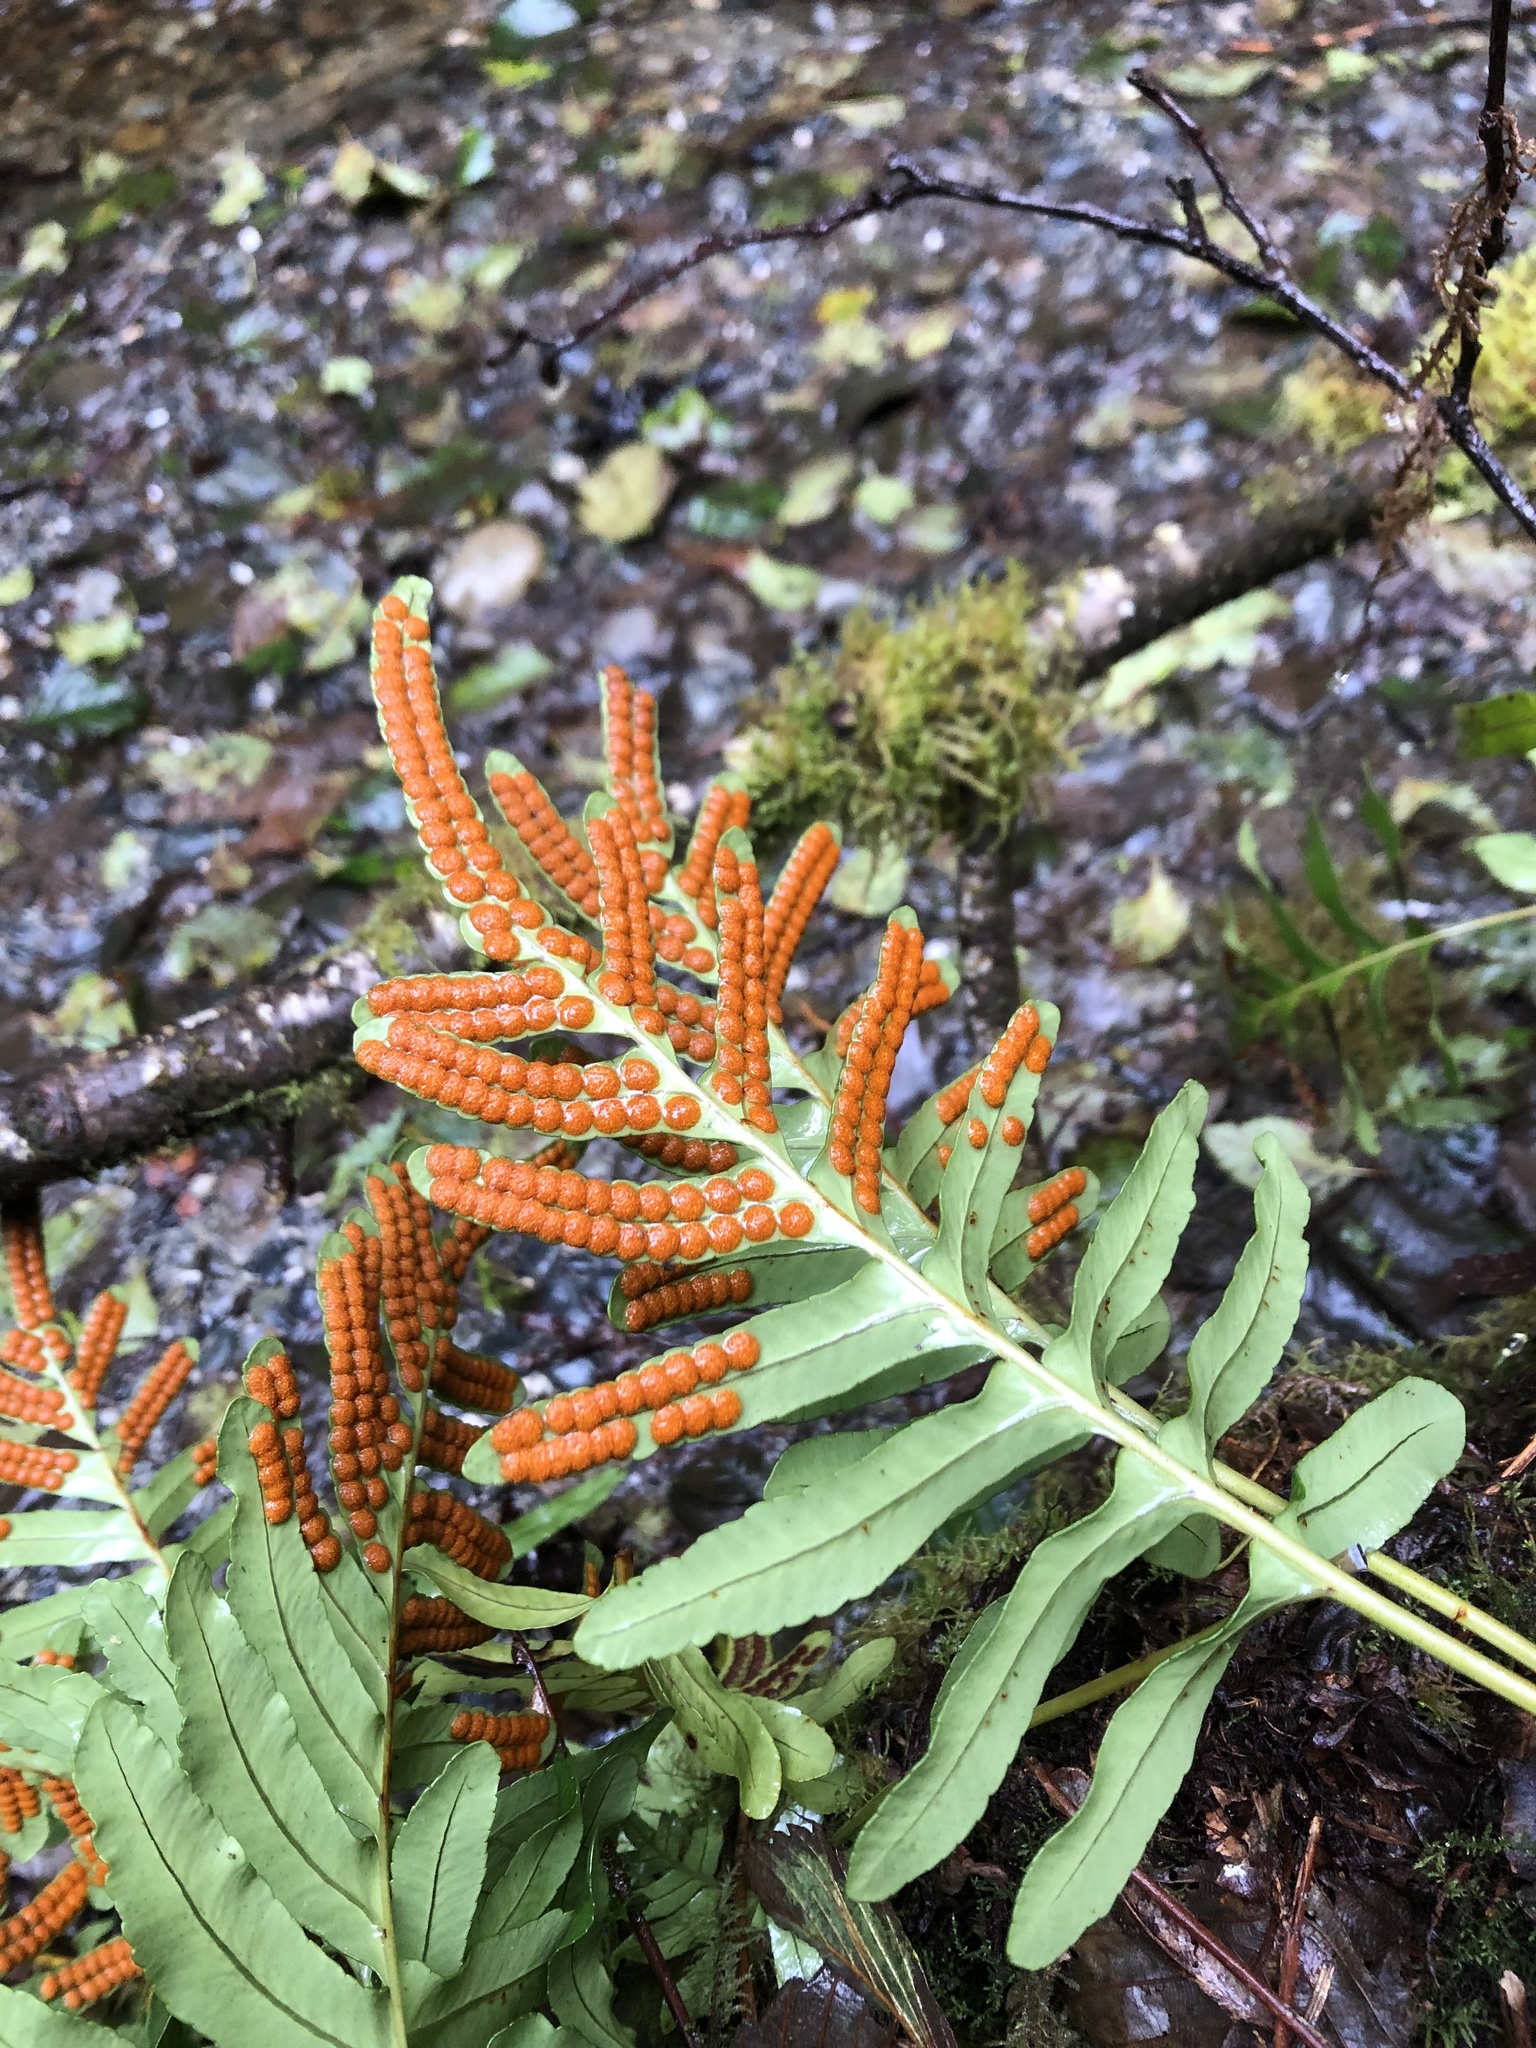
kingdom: Plantae
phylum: Tracheophyta
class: Polypodiopsida
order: Polypodiales
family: Polypodiaceae
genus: Polypodium
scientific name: Polypodium scouleri
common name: Scouler's polypody
